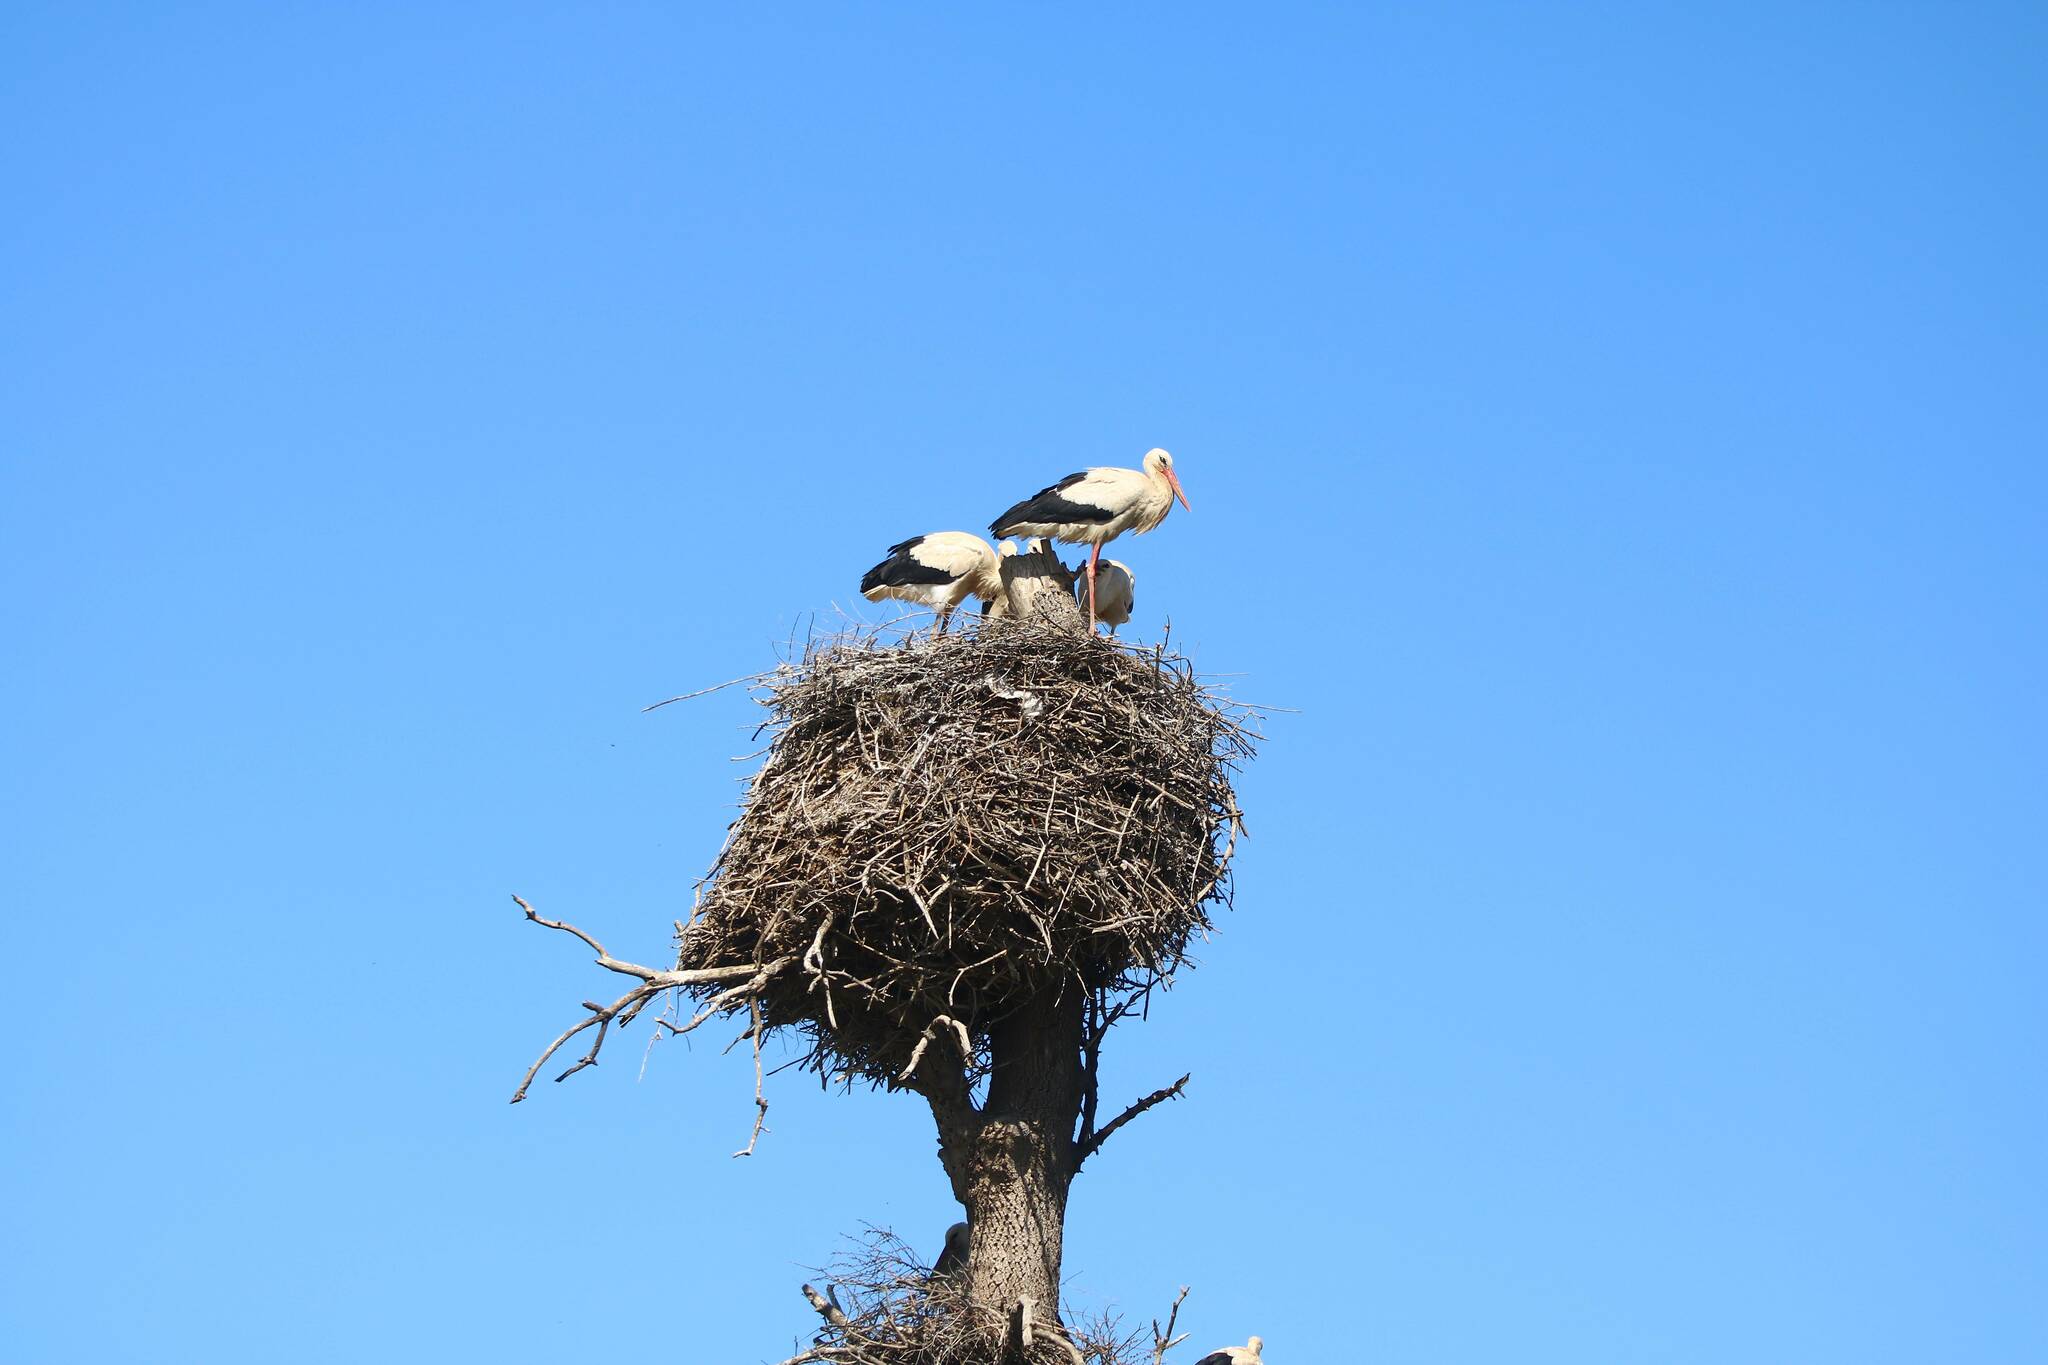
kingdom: Animalia
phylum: Chordata
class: Aves
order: Ciconiiformes
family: Ciconiidae
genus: Ciconia
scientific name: Ciconia ciconia
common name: White stork
